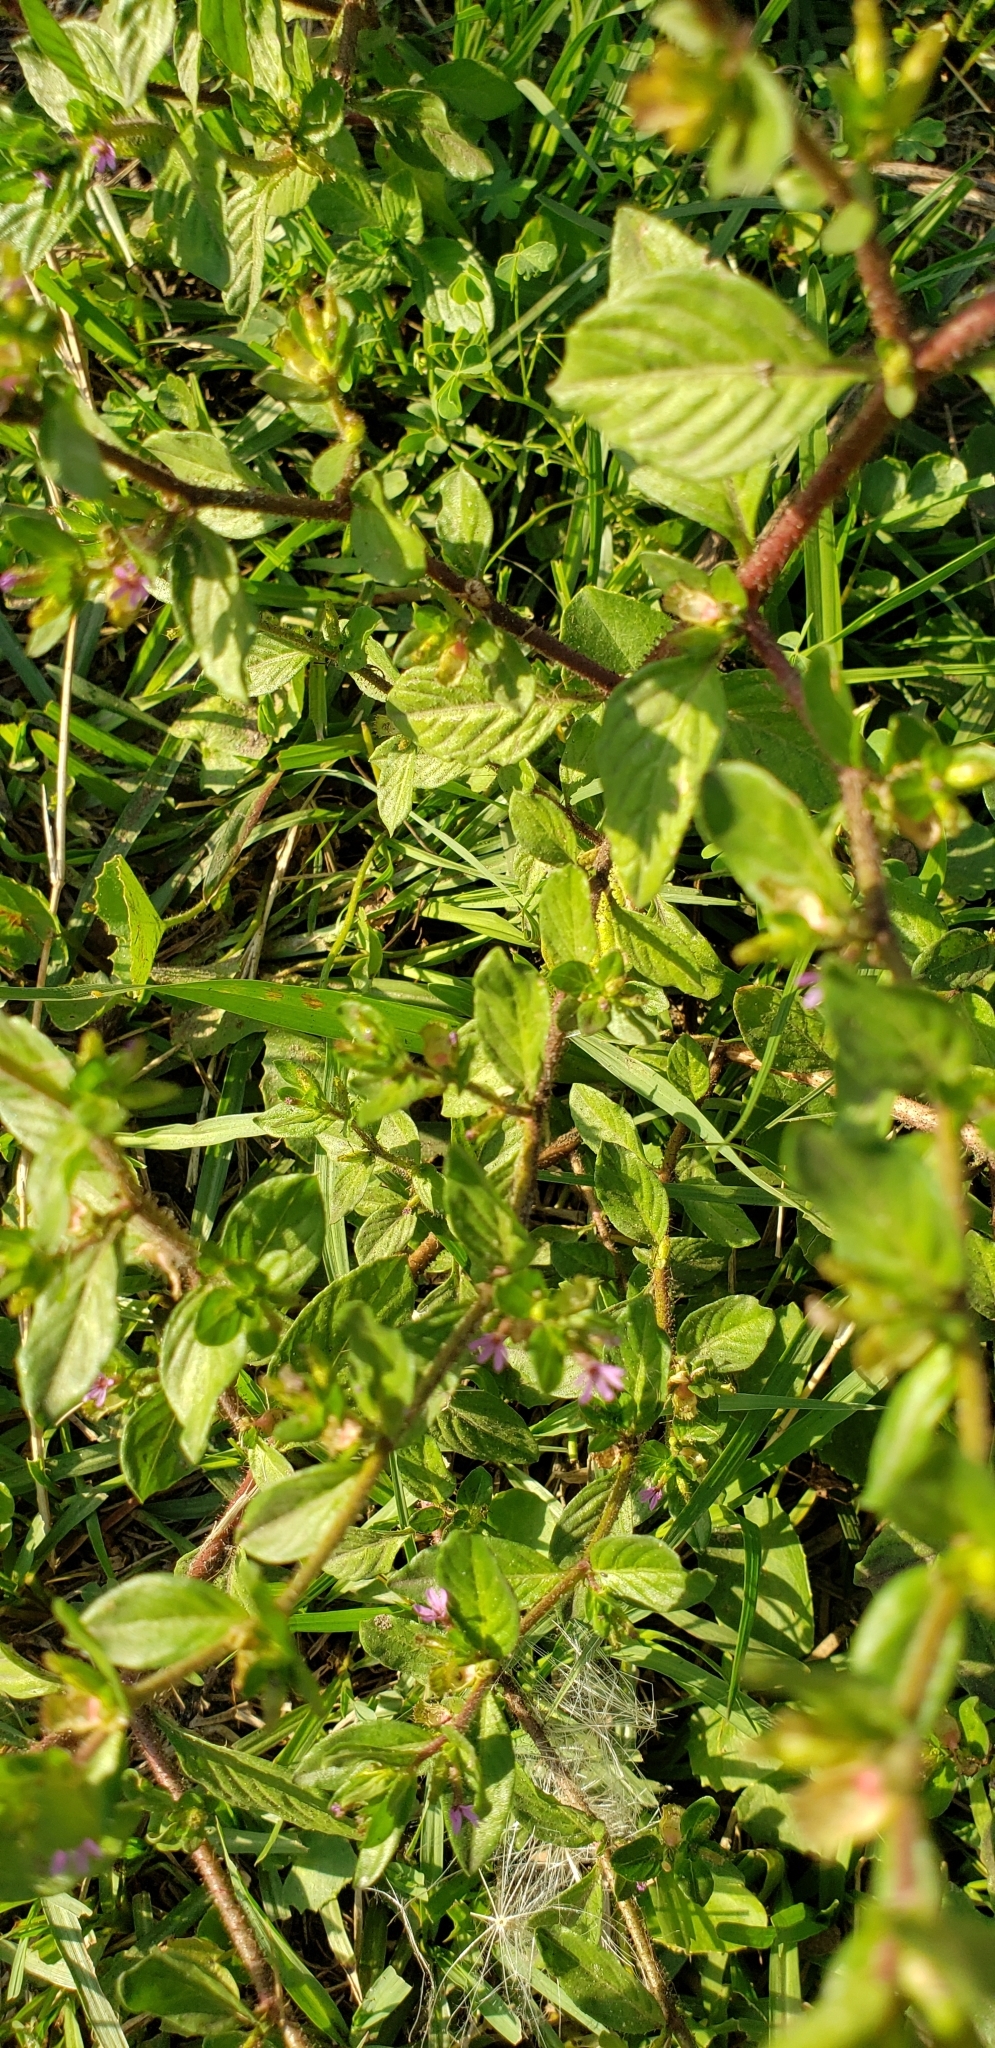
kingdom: Plantae
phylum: Tracheophyta
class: Magnoliopsida
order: Myrtales
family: Lythraceae
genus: Cuphea
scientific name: Cuphea carthagenensis
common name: Colombian waxweed
